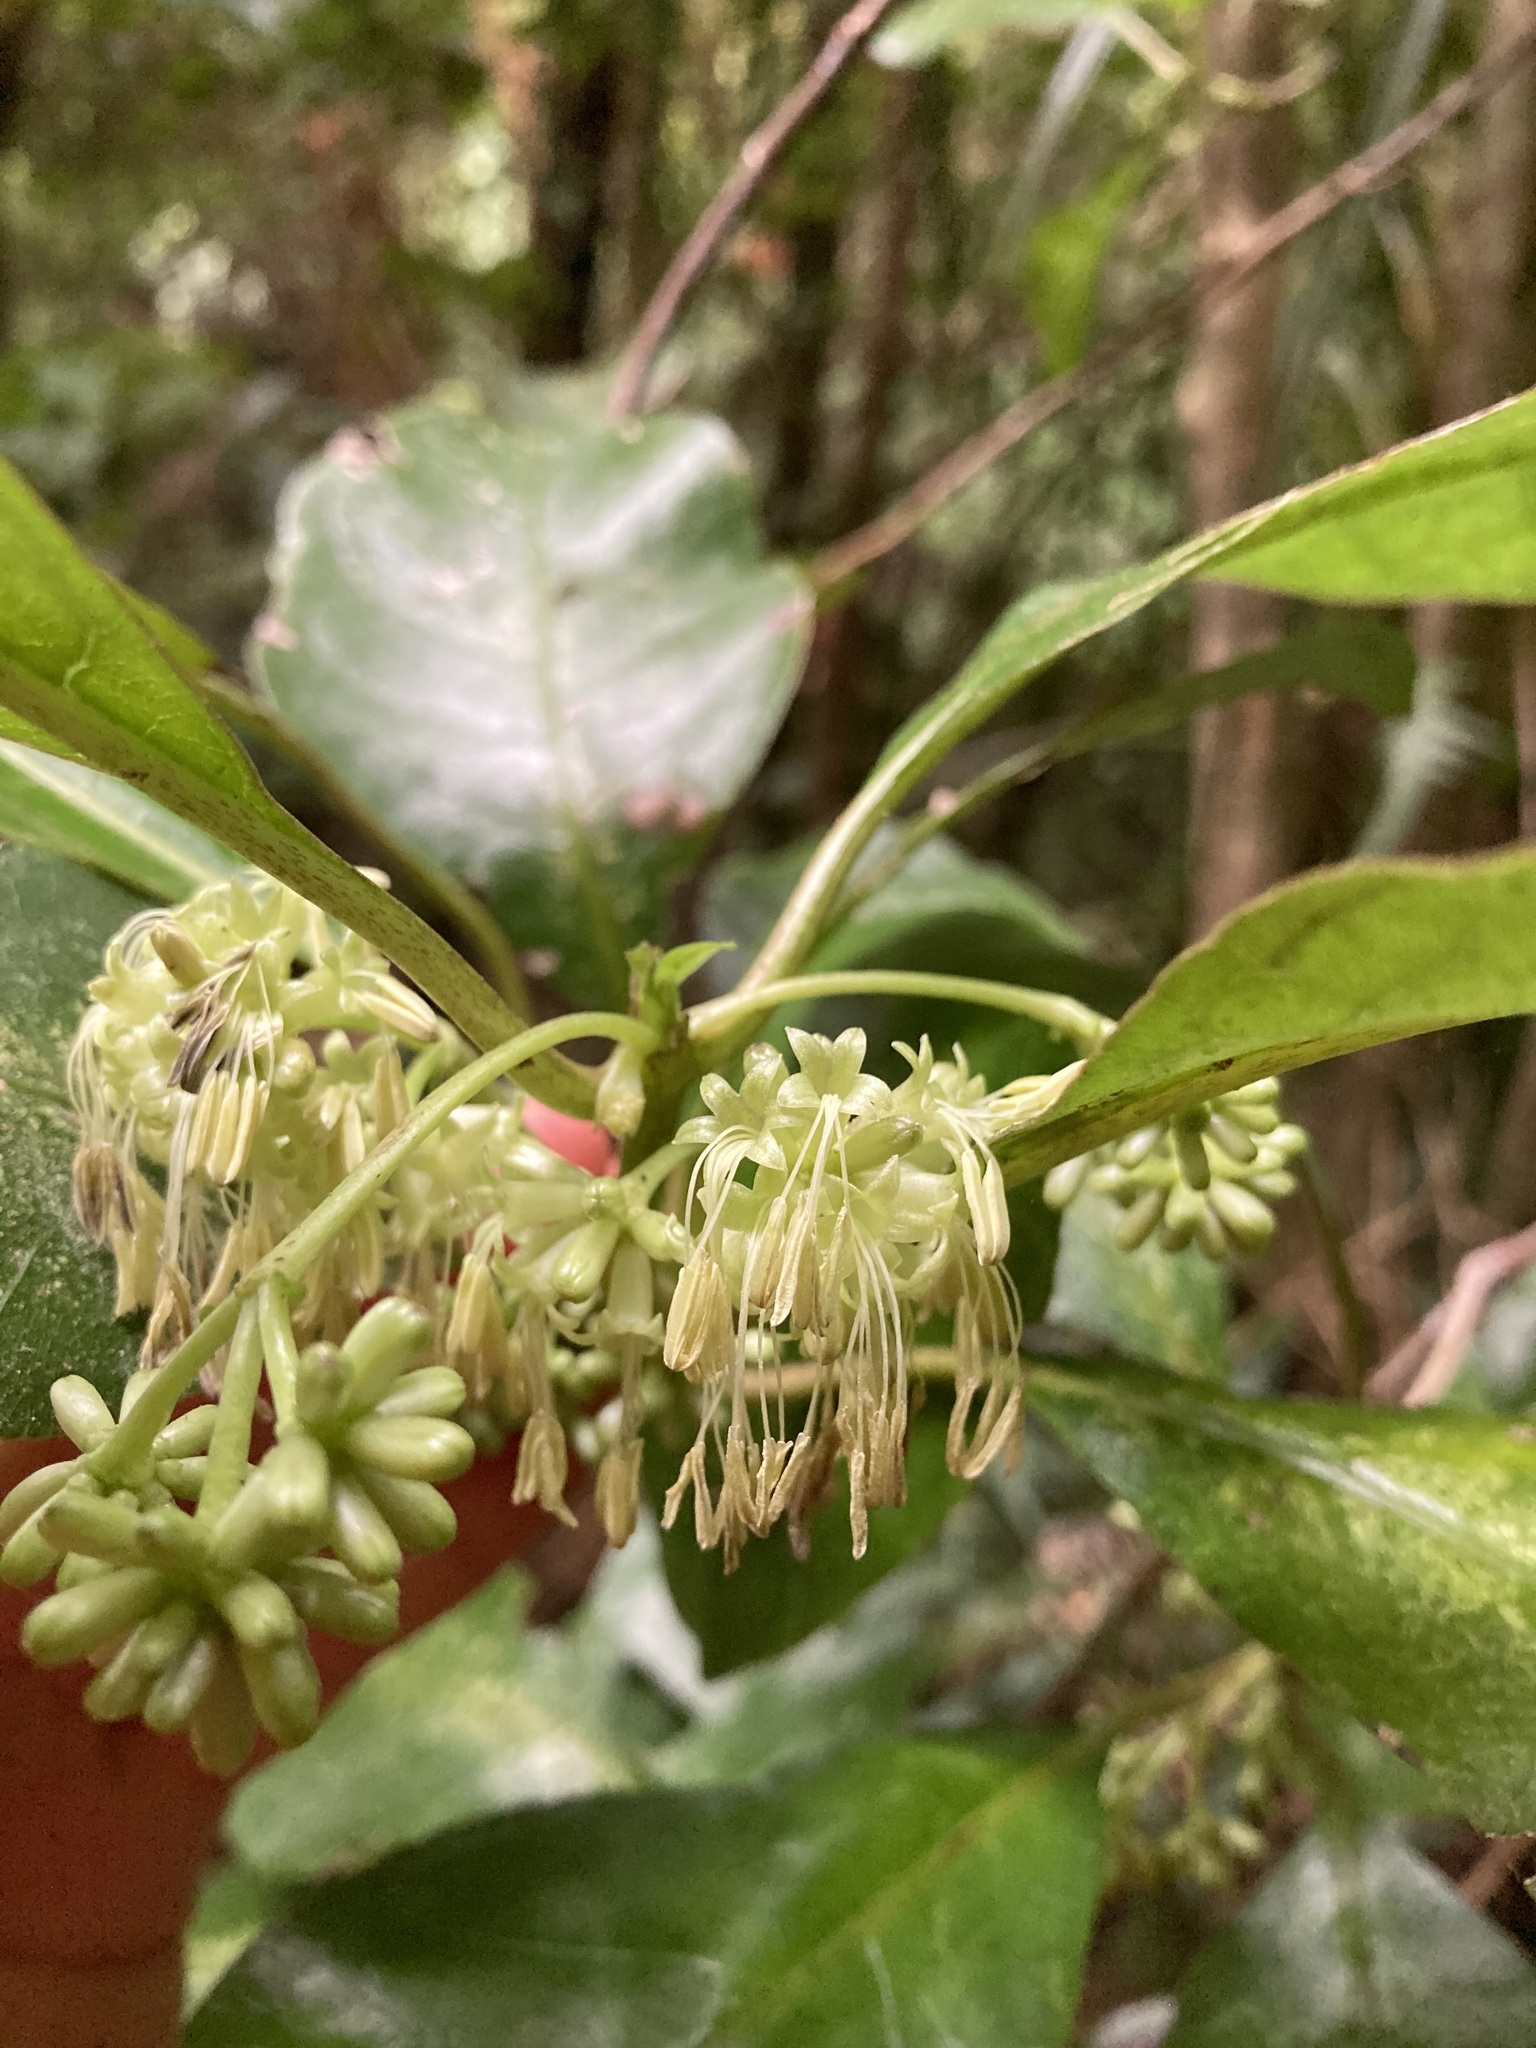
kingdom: Plantae
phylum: Tracheophyta
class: Magnoliopsida
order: Gentianales
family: Rubiaceae
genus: Coprosma
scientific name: Coprosma autumnalis
